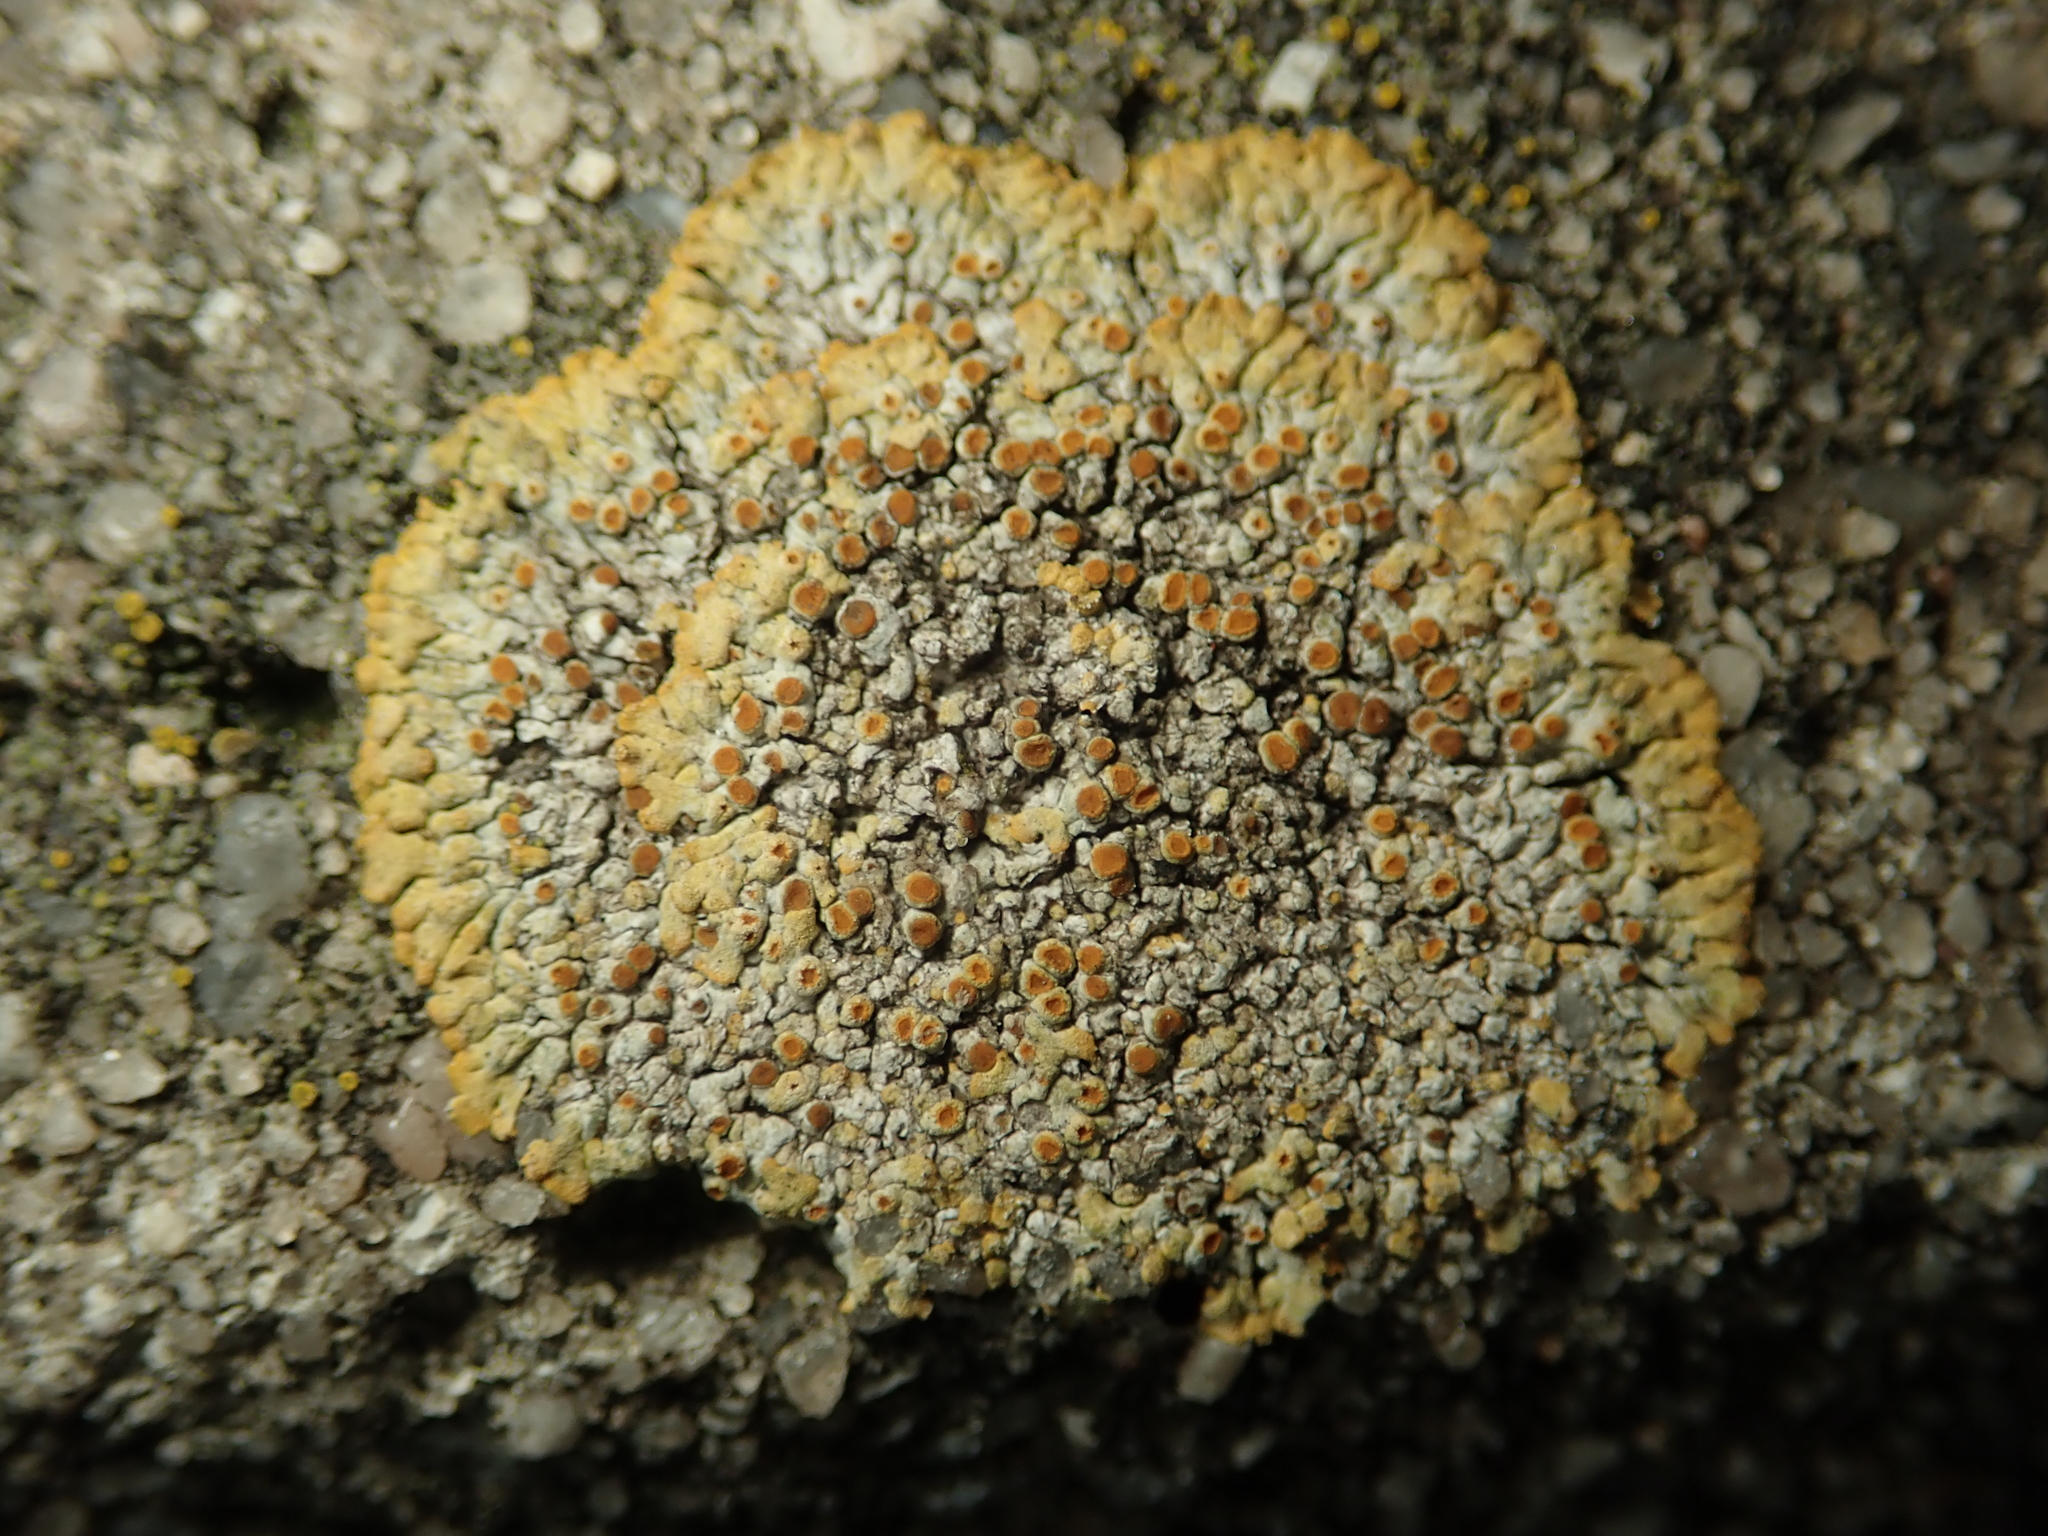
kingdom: Fungi
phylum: Ascomycota
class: Lecanoromycetes
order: Teloschistales
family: Teloschistaceae
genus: Calogaya
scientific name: Calogaya pusilla
